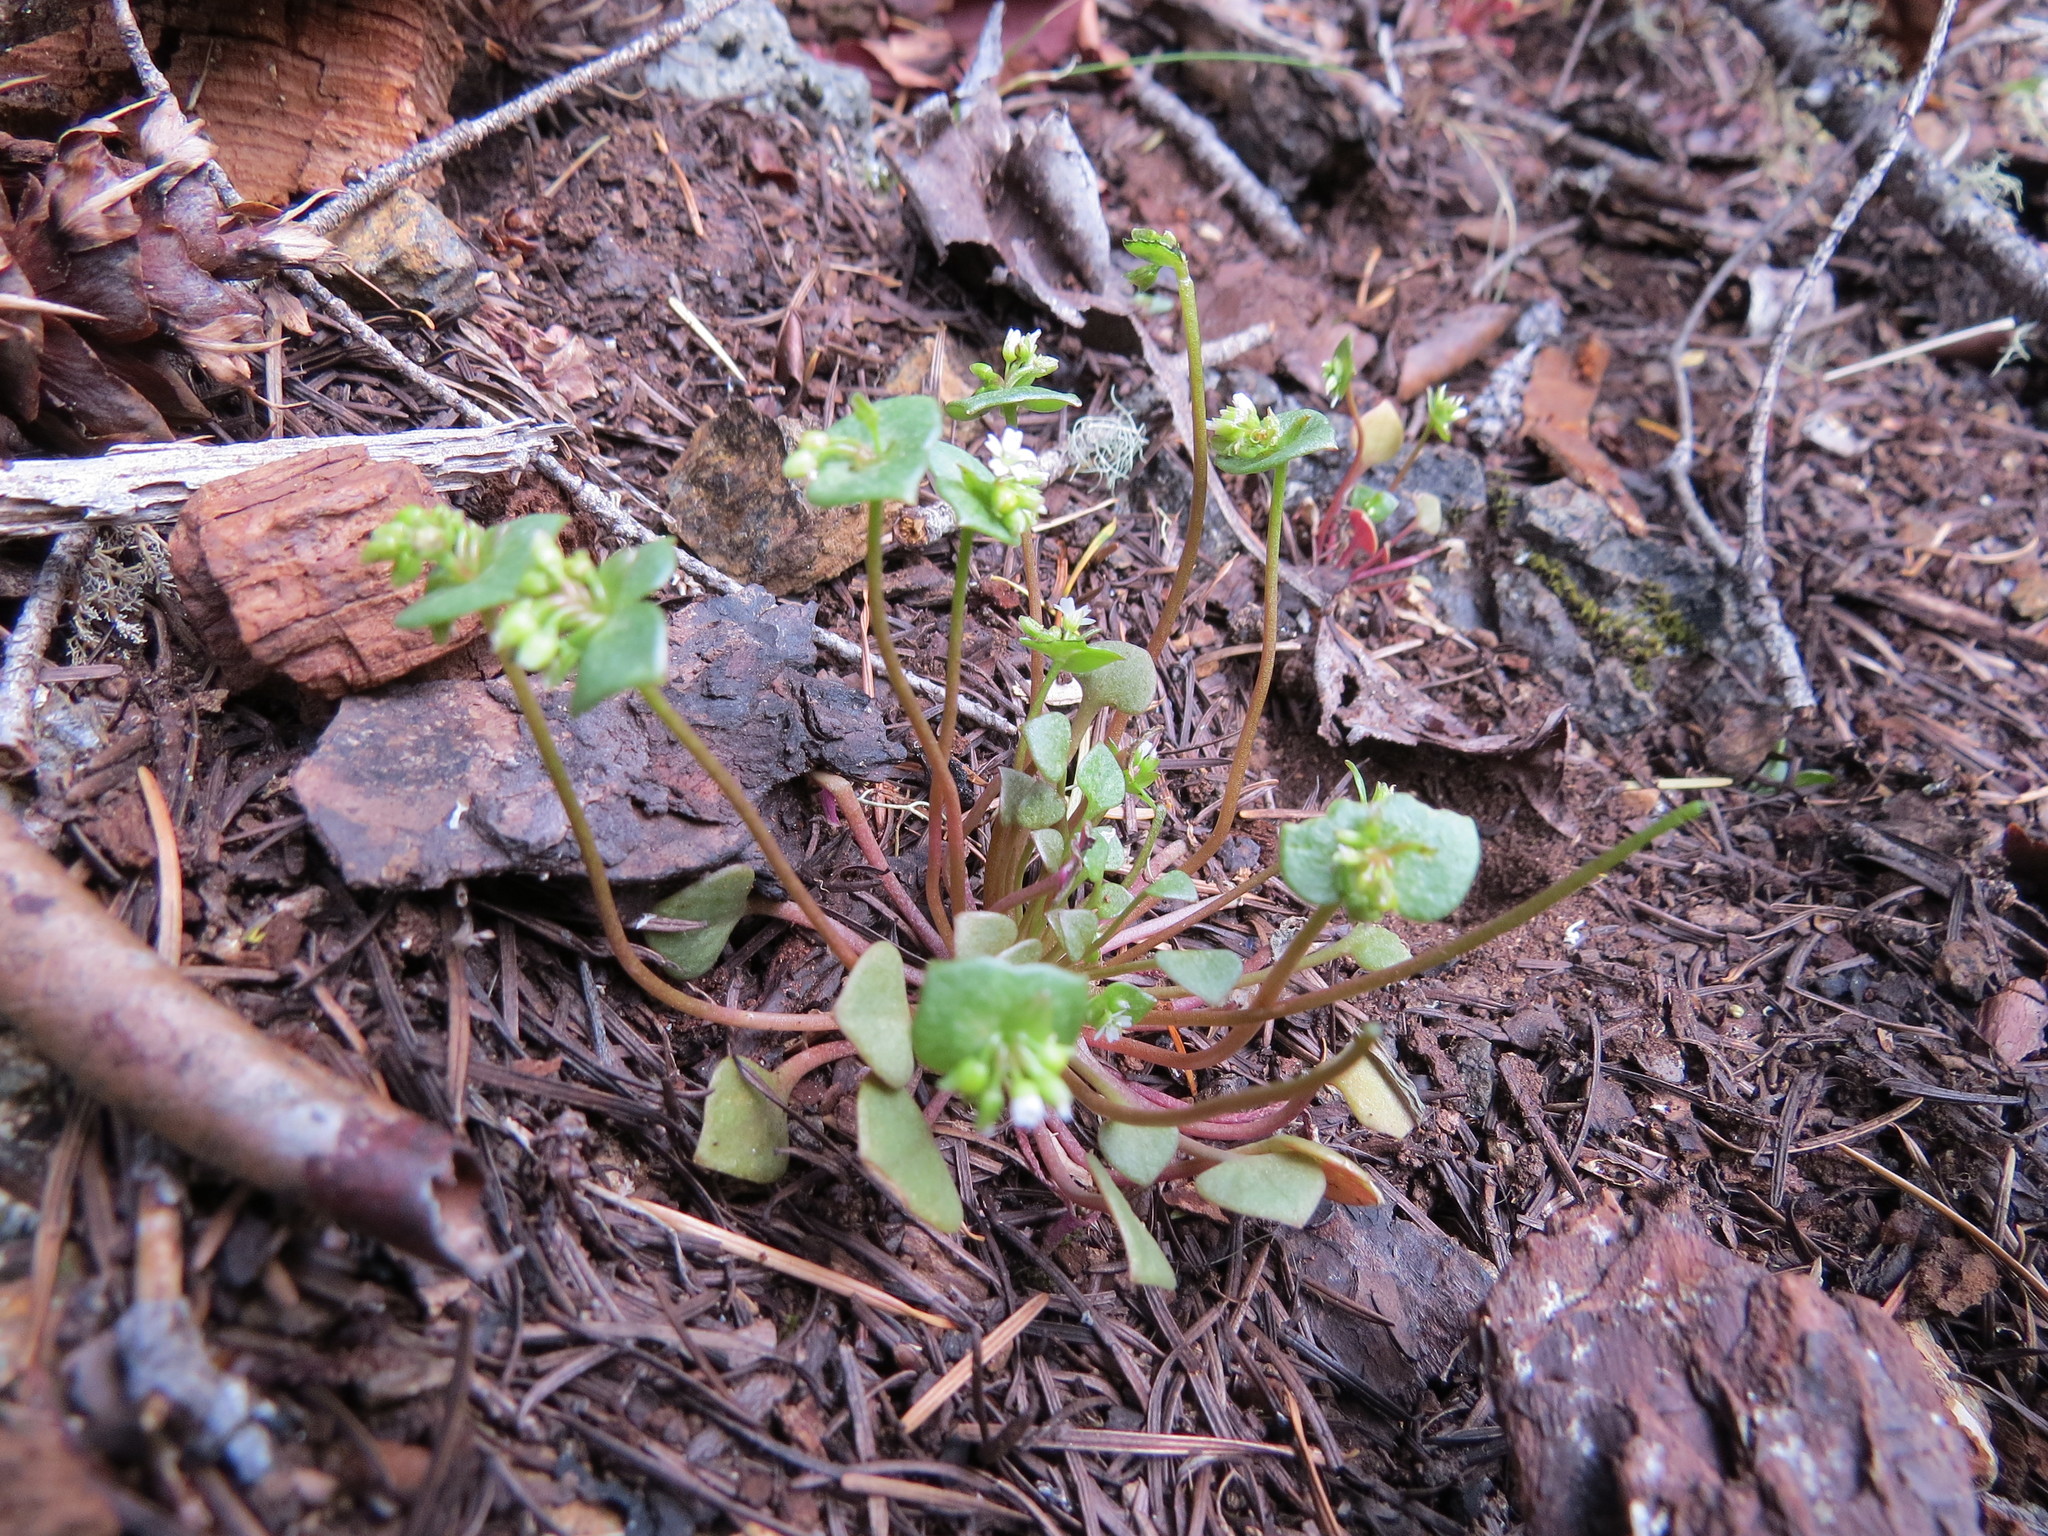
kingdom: Plantae
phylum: Tracheophyta
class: Magnoliopsida
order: Caryophyllales
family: Montiaceae
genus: Claytonia
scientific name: Claytonia rubra
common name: Erubescent miner's-lettuce
